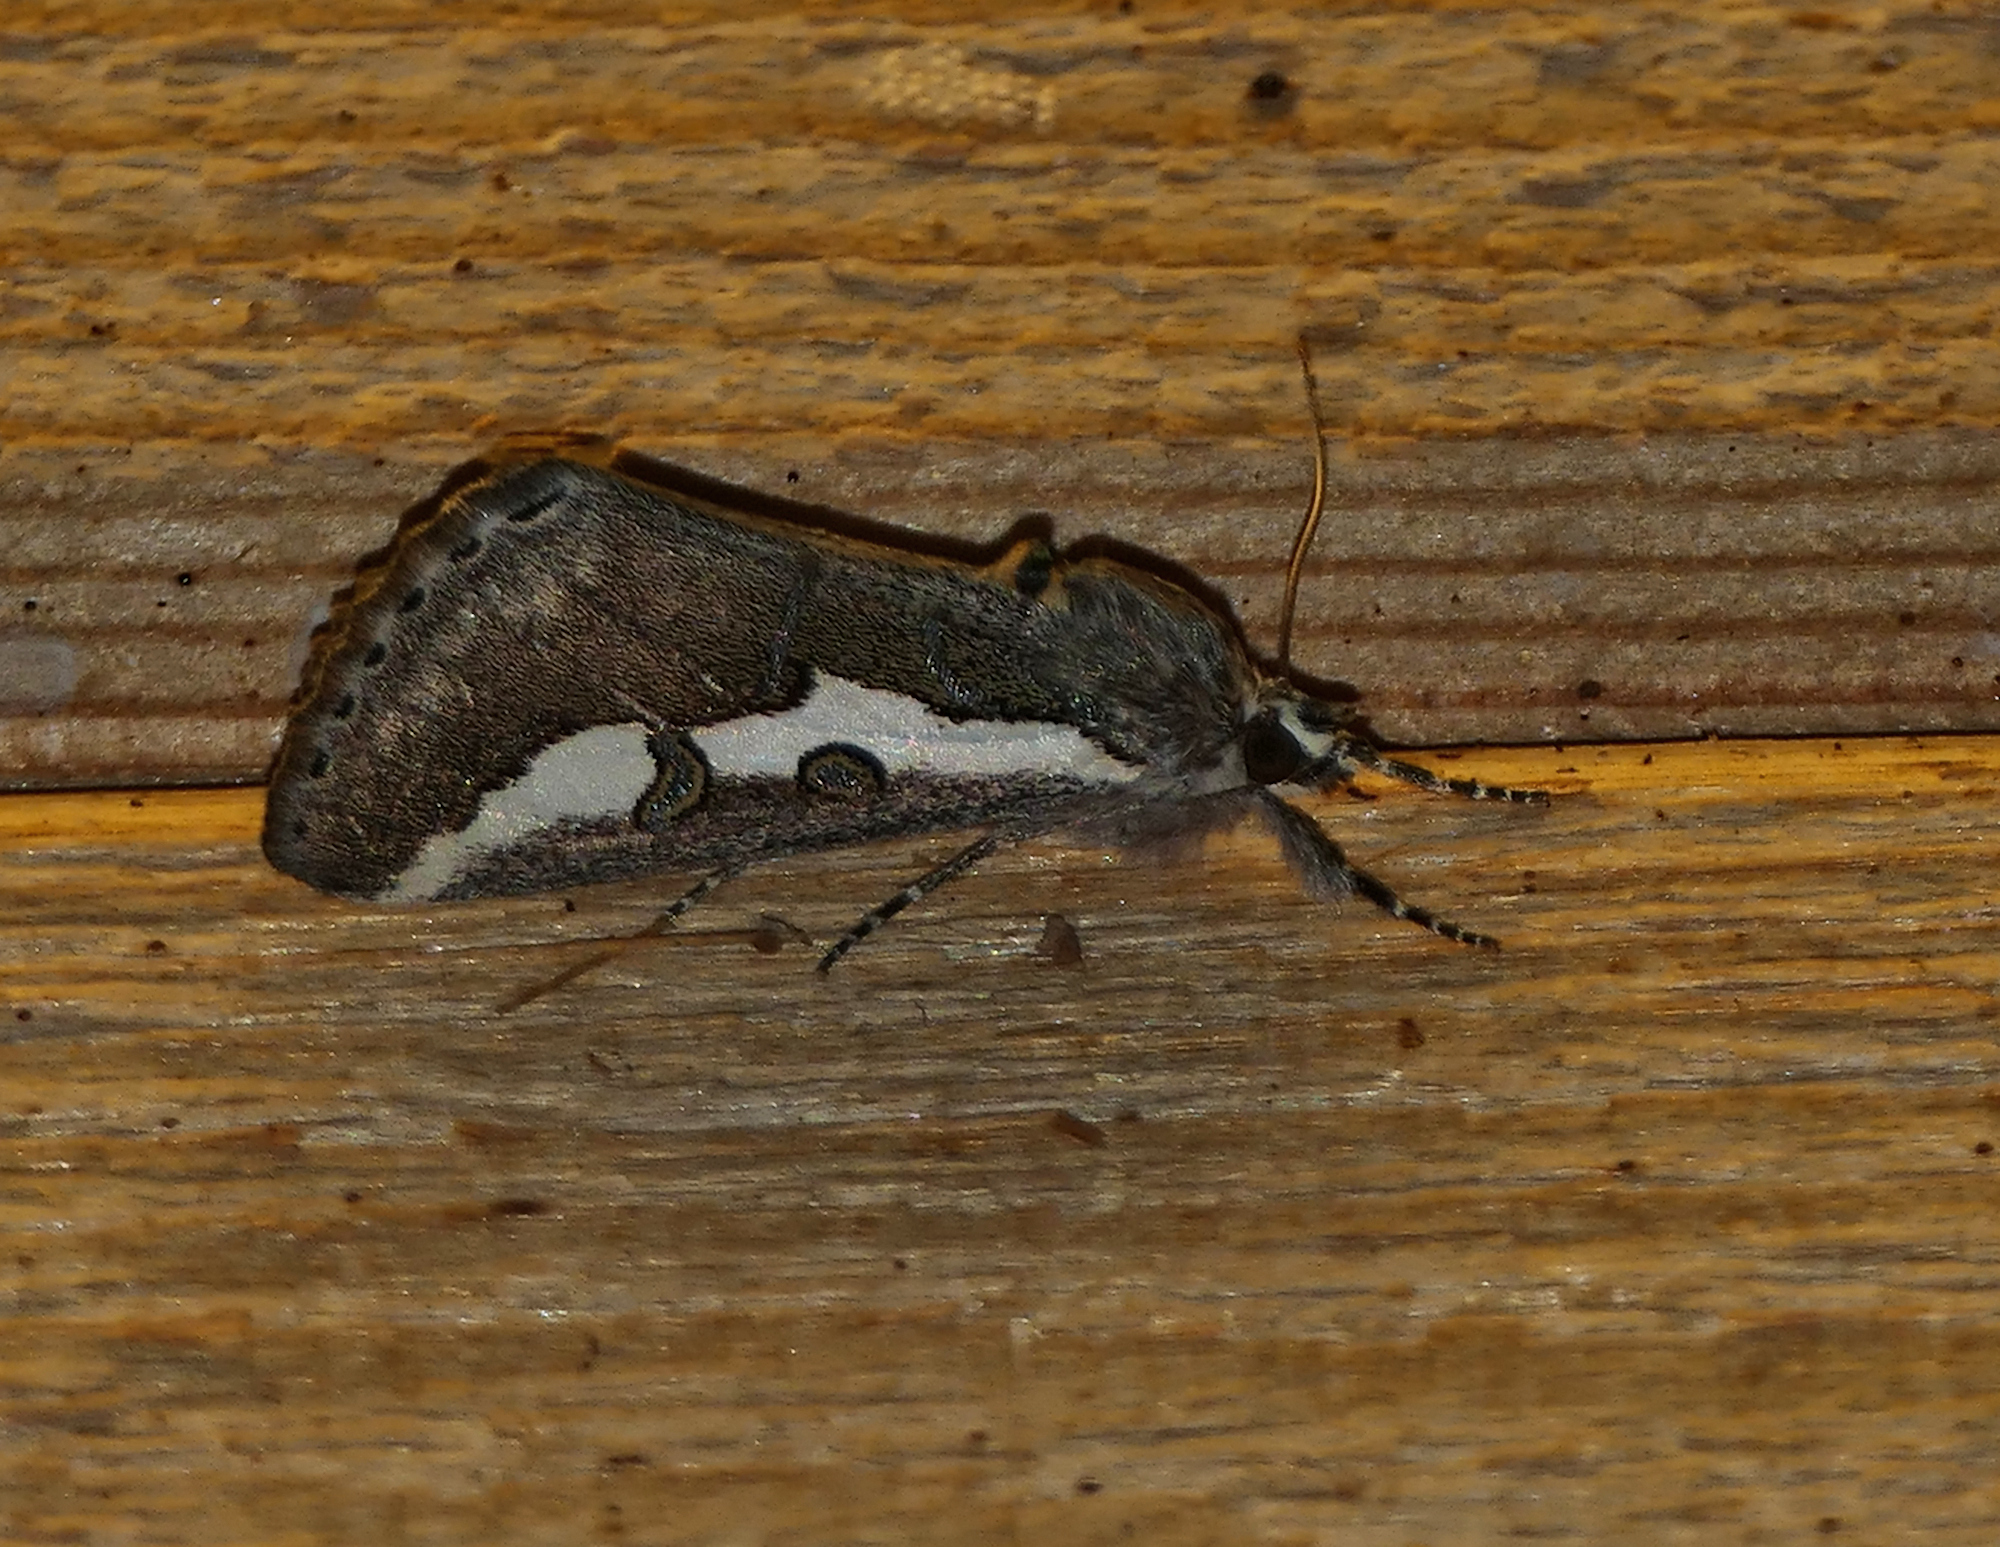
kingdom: Animalia
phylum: Arthropoda
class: Insecta
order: Lepidoptera
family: Noctuidae
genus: Euscirrhopterus
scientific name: Euscirrhopterus gloveri
